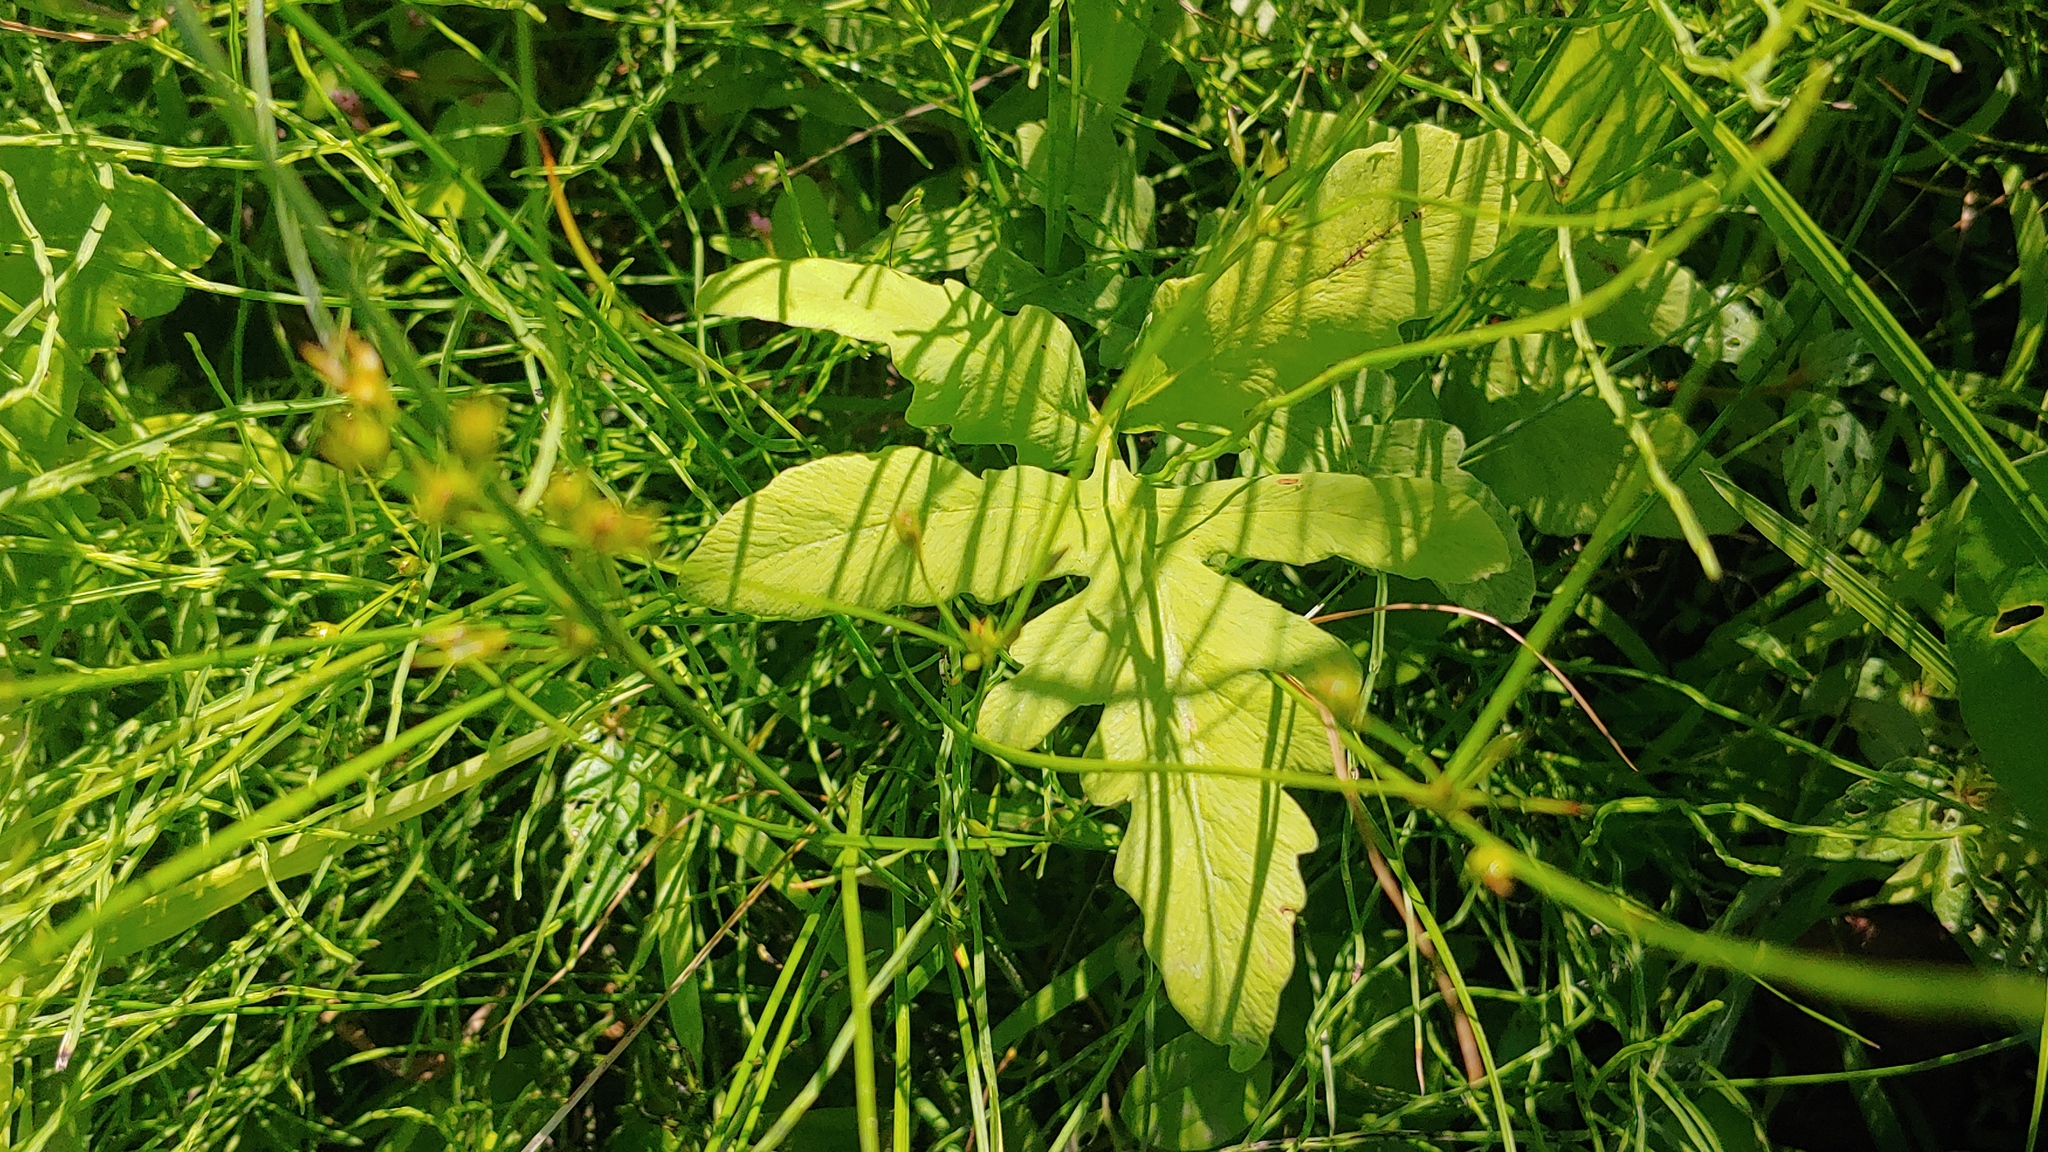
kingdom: Plantae
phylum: Tracheophyta
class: Polypodiopsida
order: Polypodiales
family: Onocleaceae
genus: Onoclea
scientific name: Onoclea sensibilis
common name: Sensitive fern
